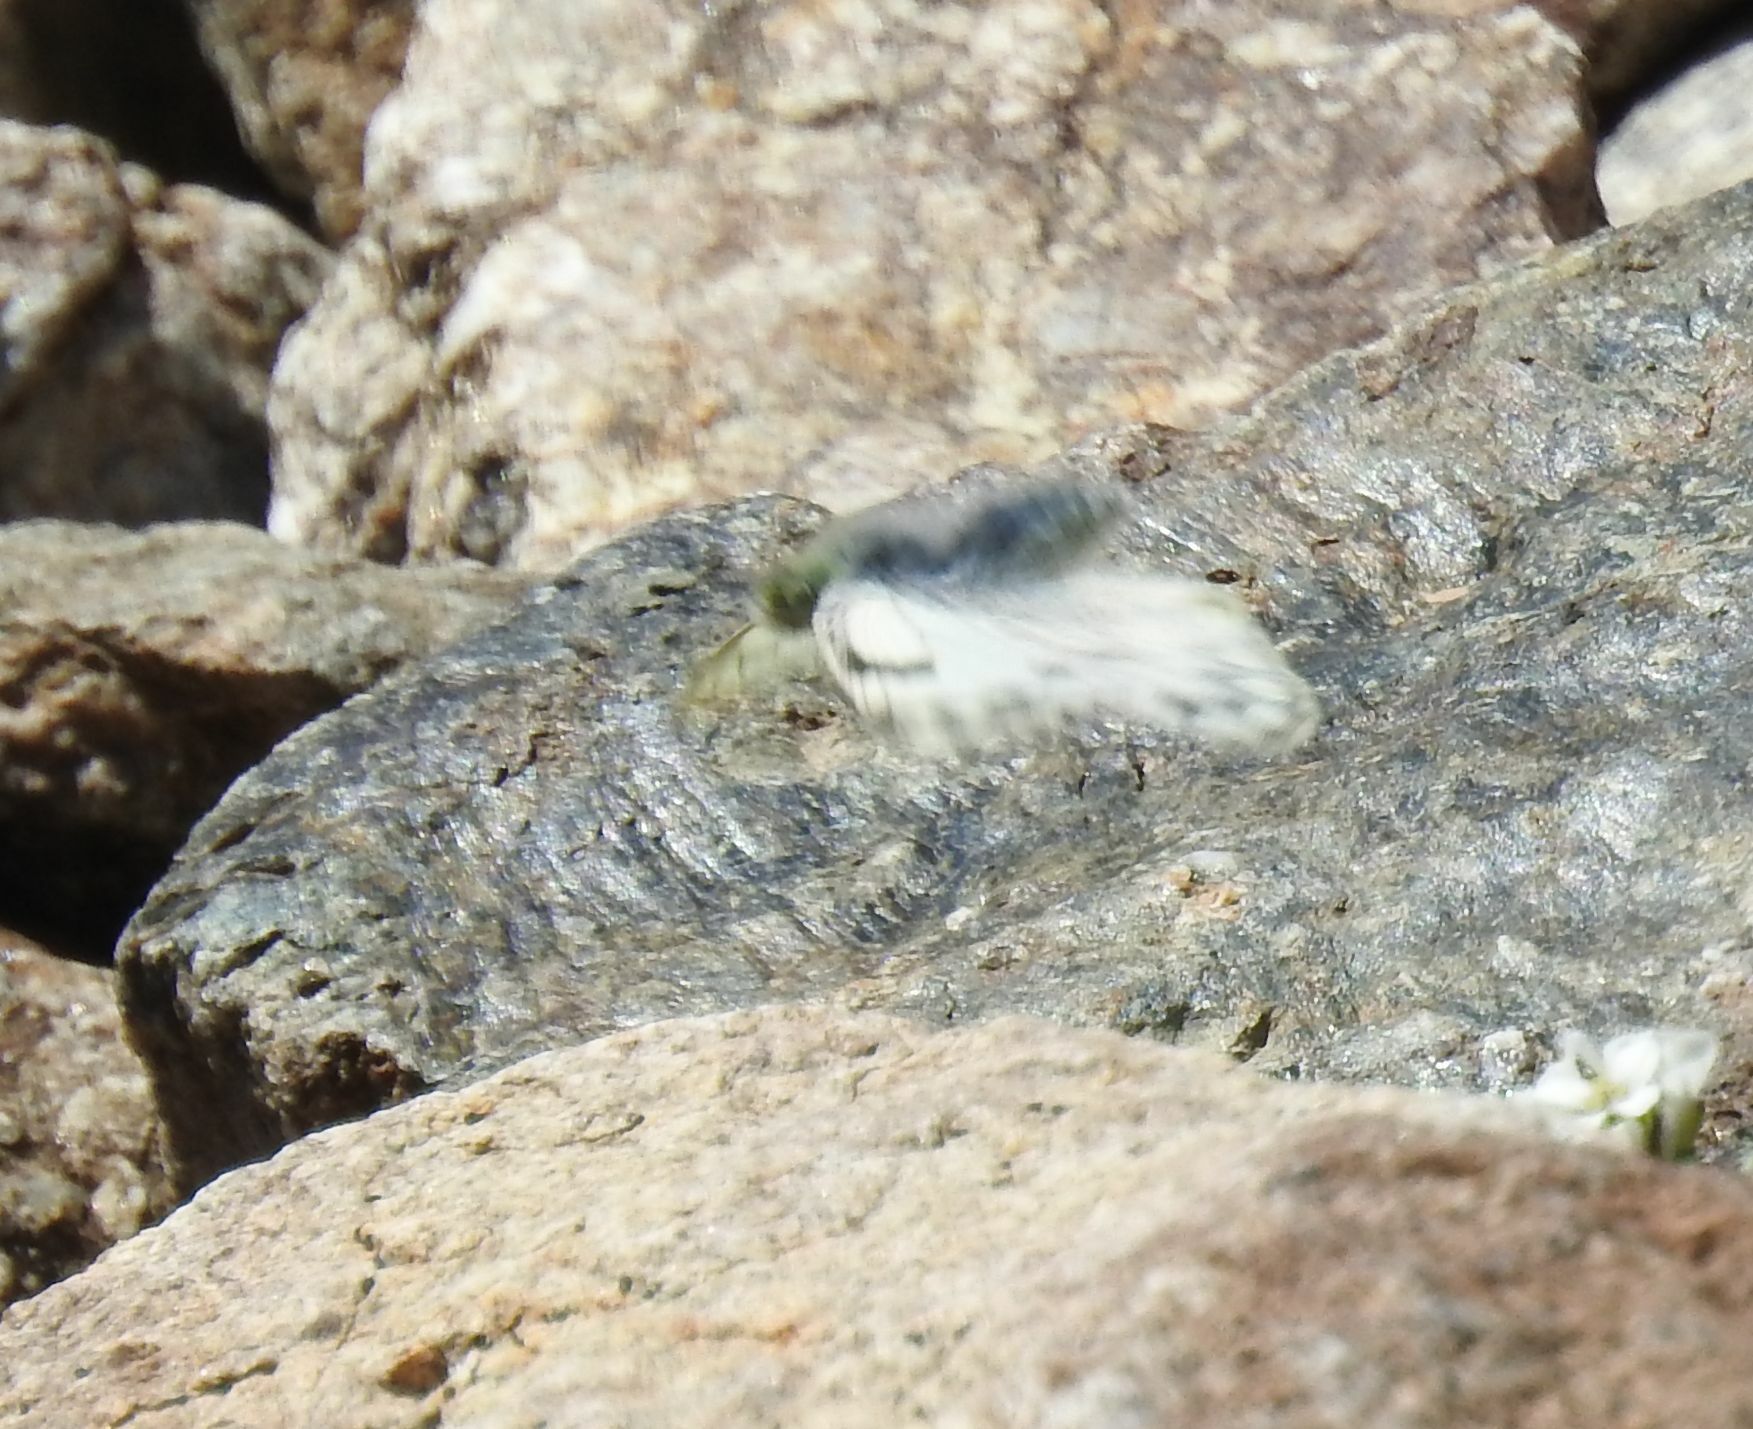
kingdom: Animalia
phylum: Arthropoda
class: Insecta
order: Lepidoptera
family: Pieridae
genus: Pontia
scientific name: Pontia callidice
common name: Peak white
